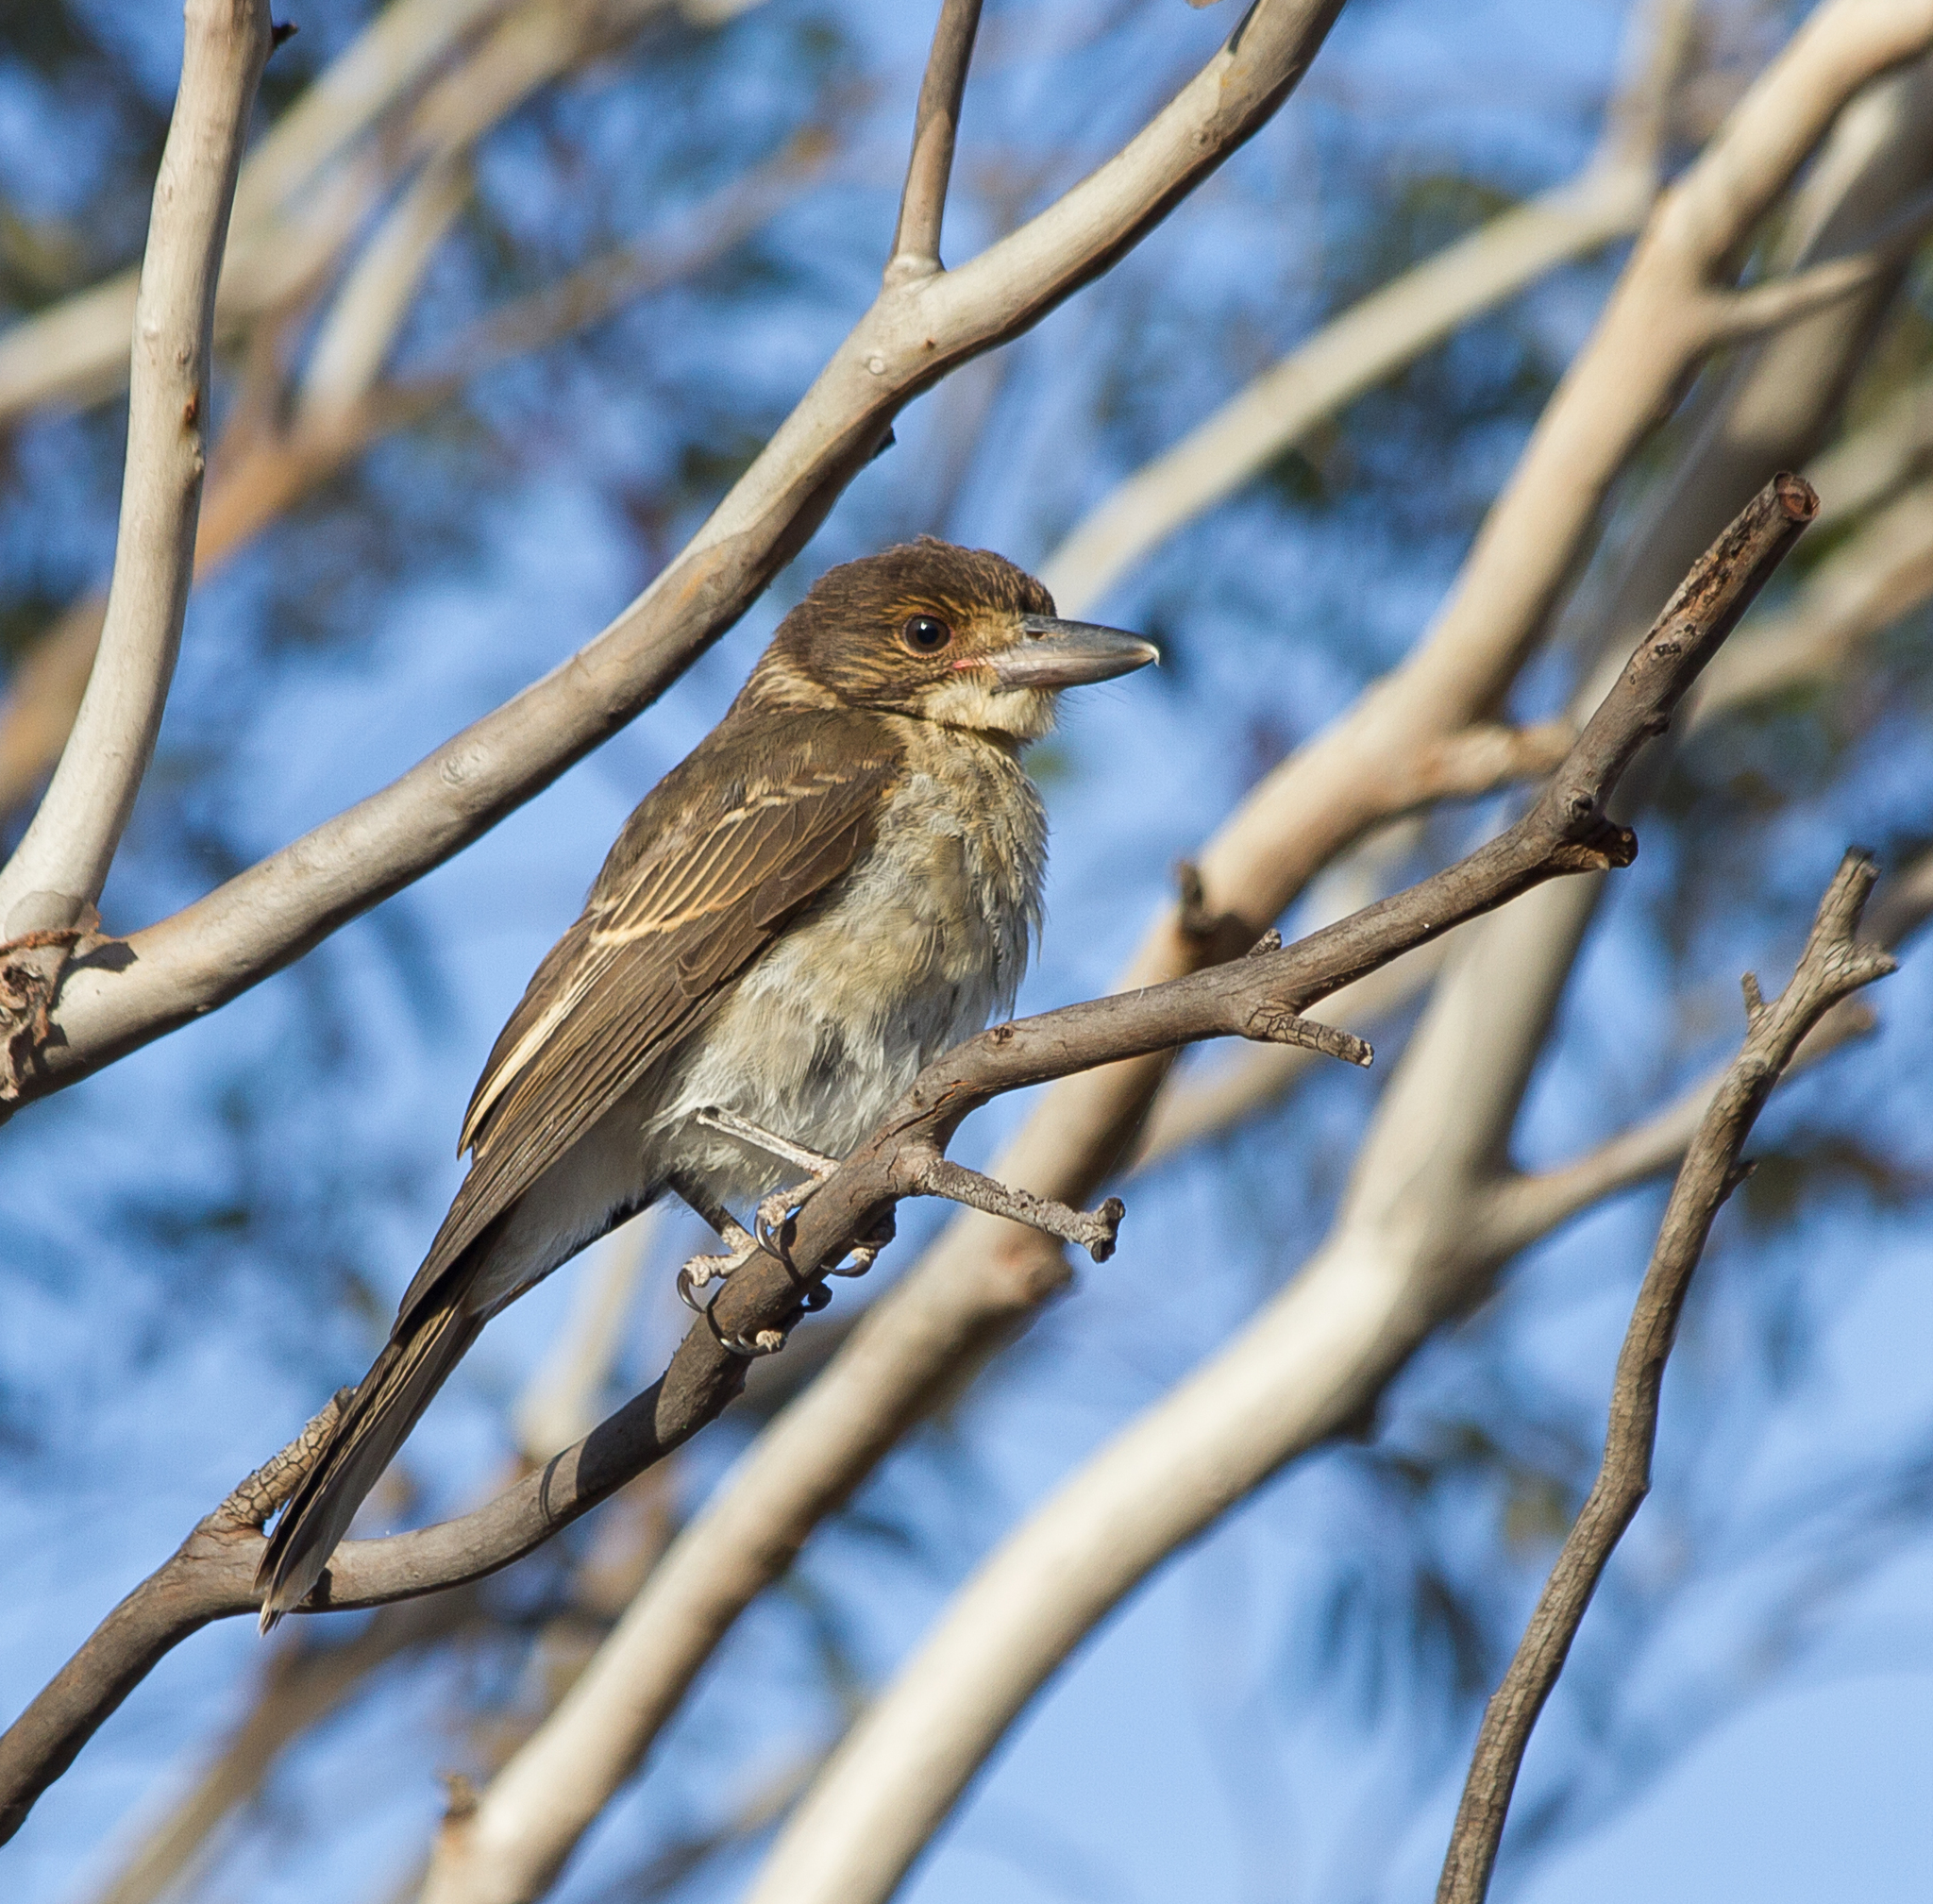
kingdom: Animalia
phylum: Chordata
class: Aves
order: Passeriformes
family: Cracticidae
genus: Cracticus
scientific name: Cracticus torquatus
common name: Grey butcherbird
